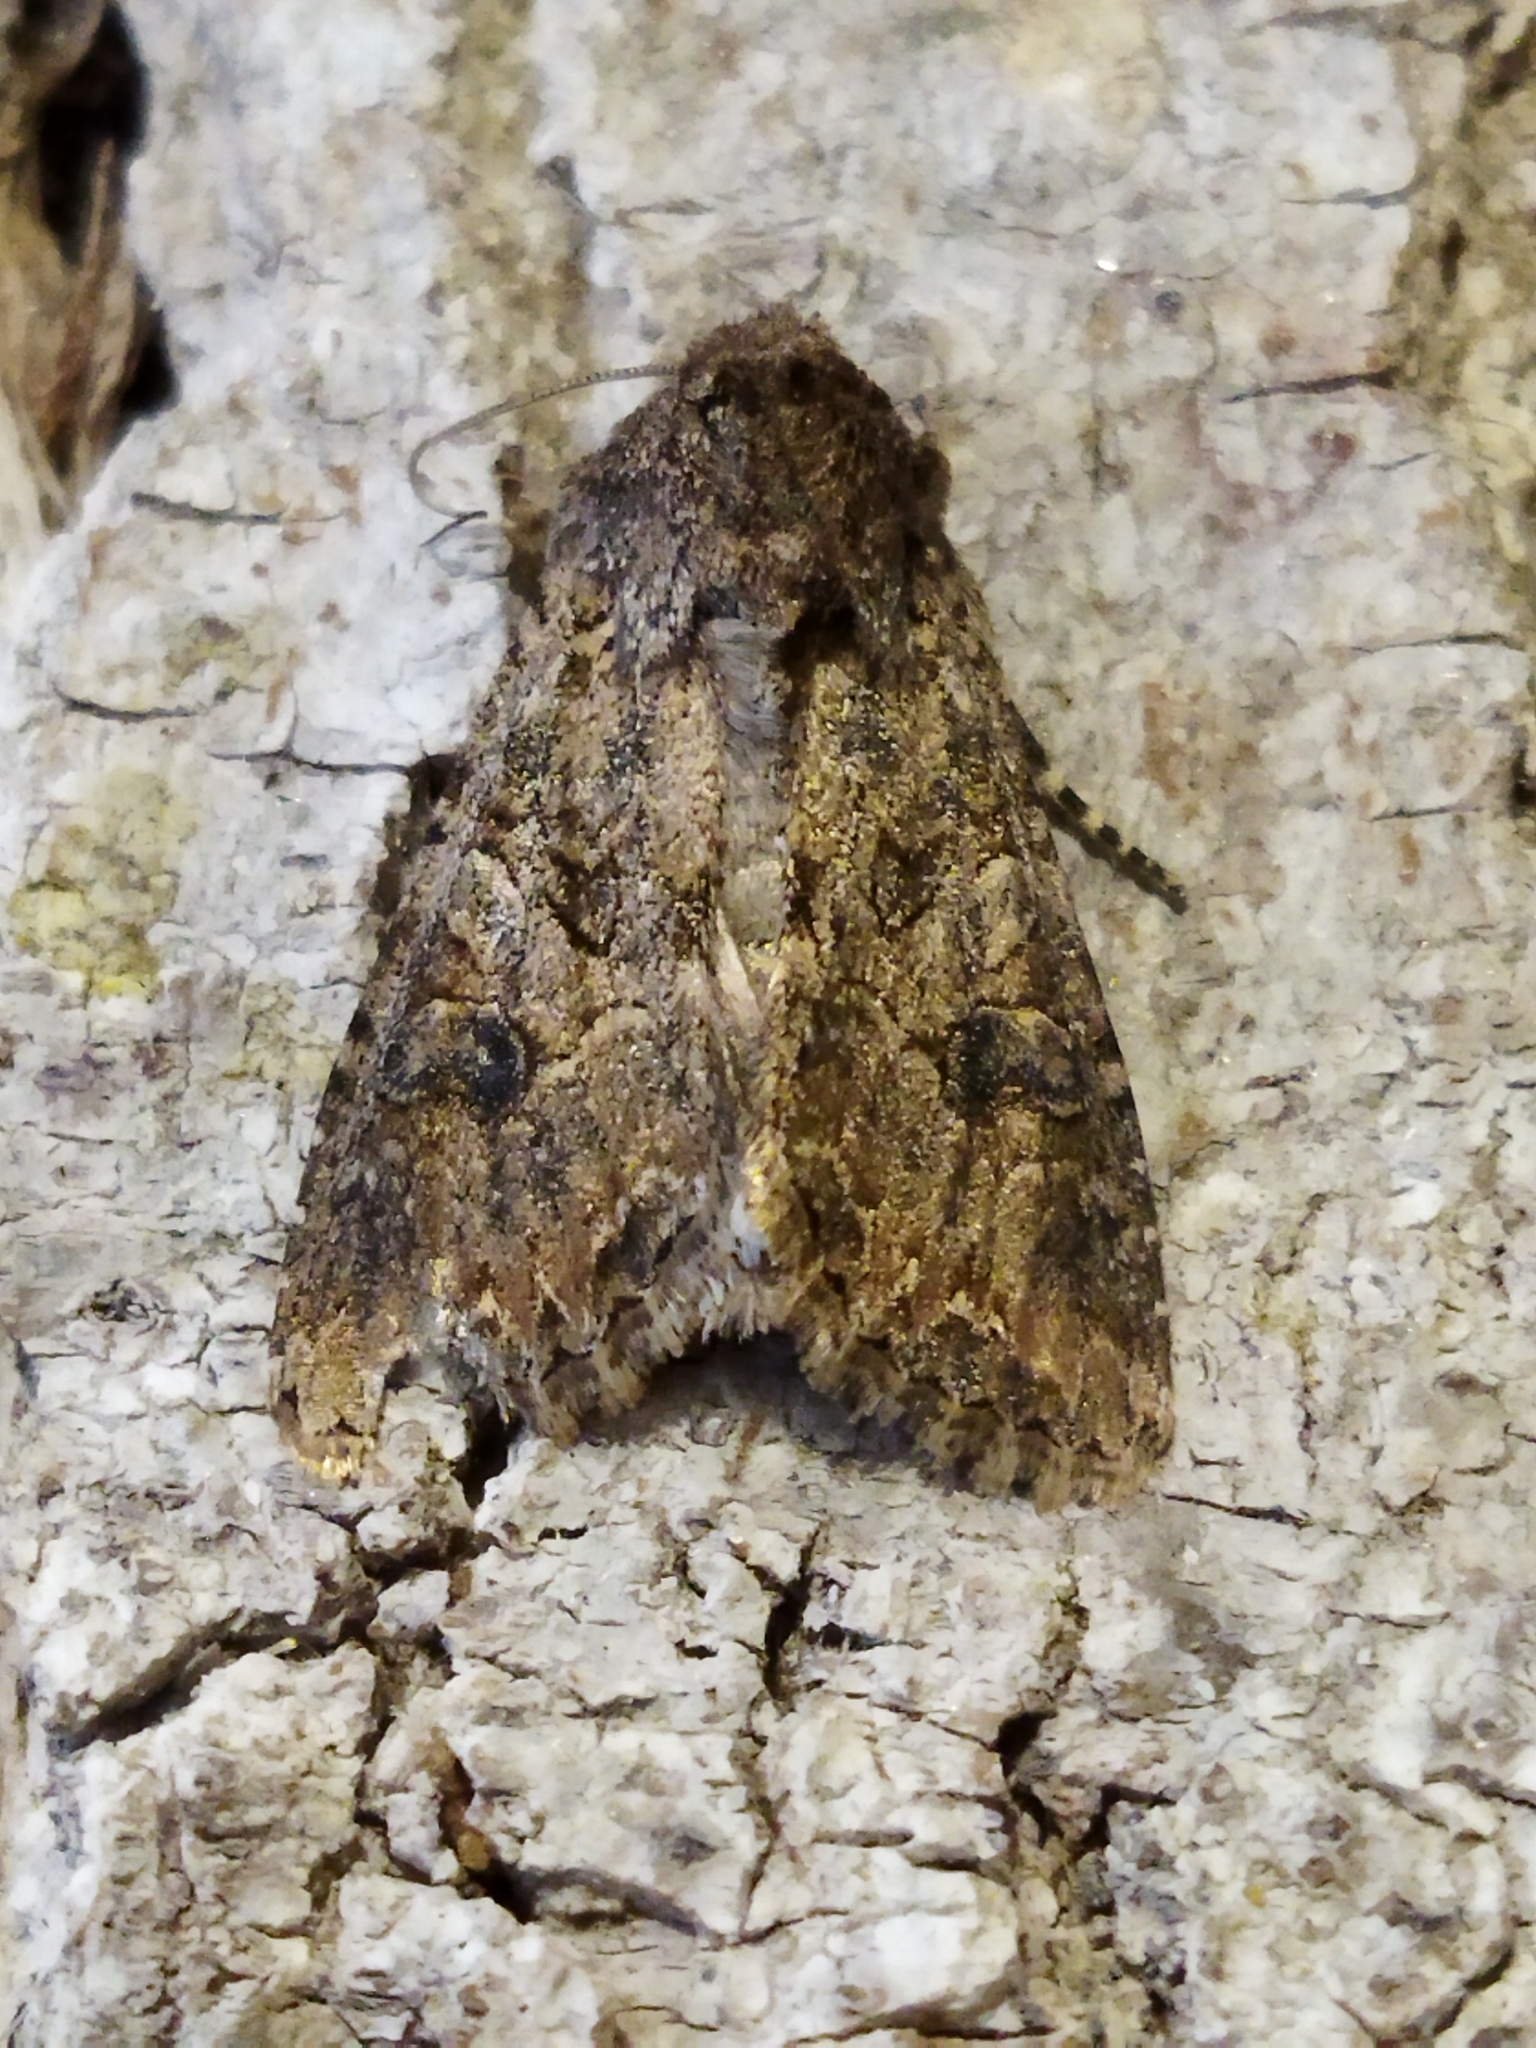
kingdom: Animalia
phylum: Arthropoda
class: Insecta
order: Lepidoptera
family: Noctuidae
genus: Anarta
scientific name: Anarta trifolii
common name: Clover cutworm moth
